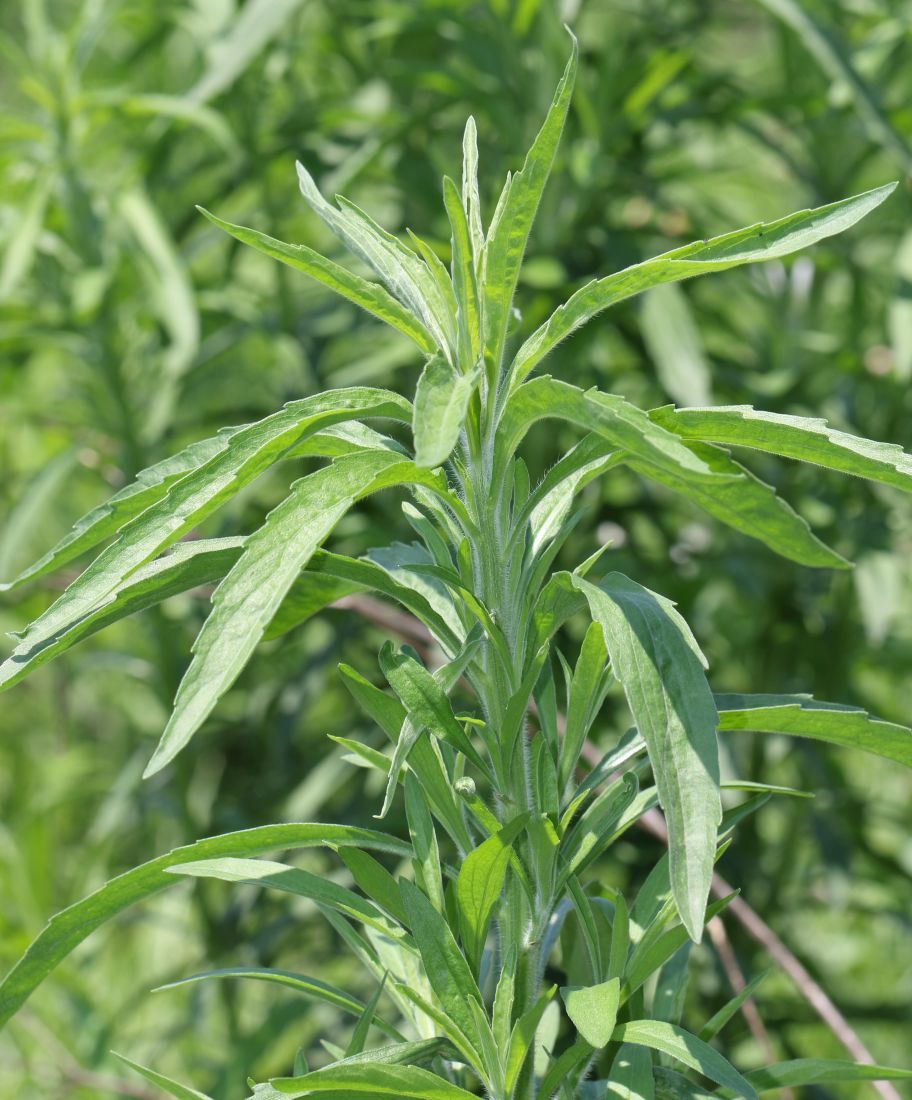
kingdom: Plantae
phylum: Tracheophyta
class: Magnoliopsida
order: Asterales
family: Asteraceae
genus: Erigeron
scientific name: Erigeron sumatrensis
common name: Daisy
